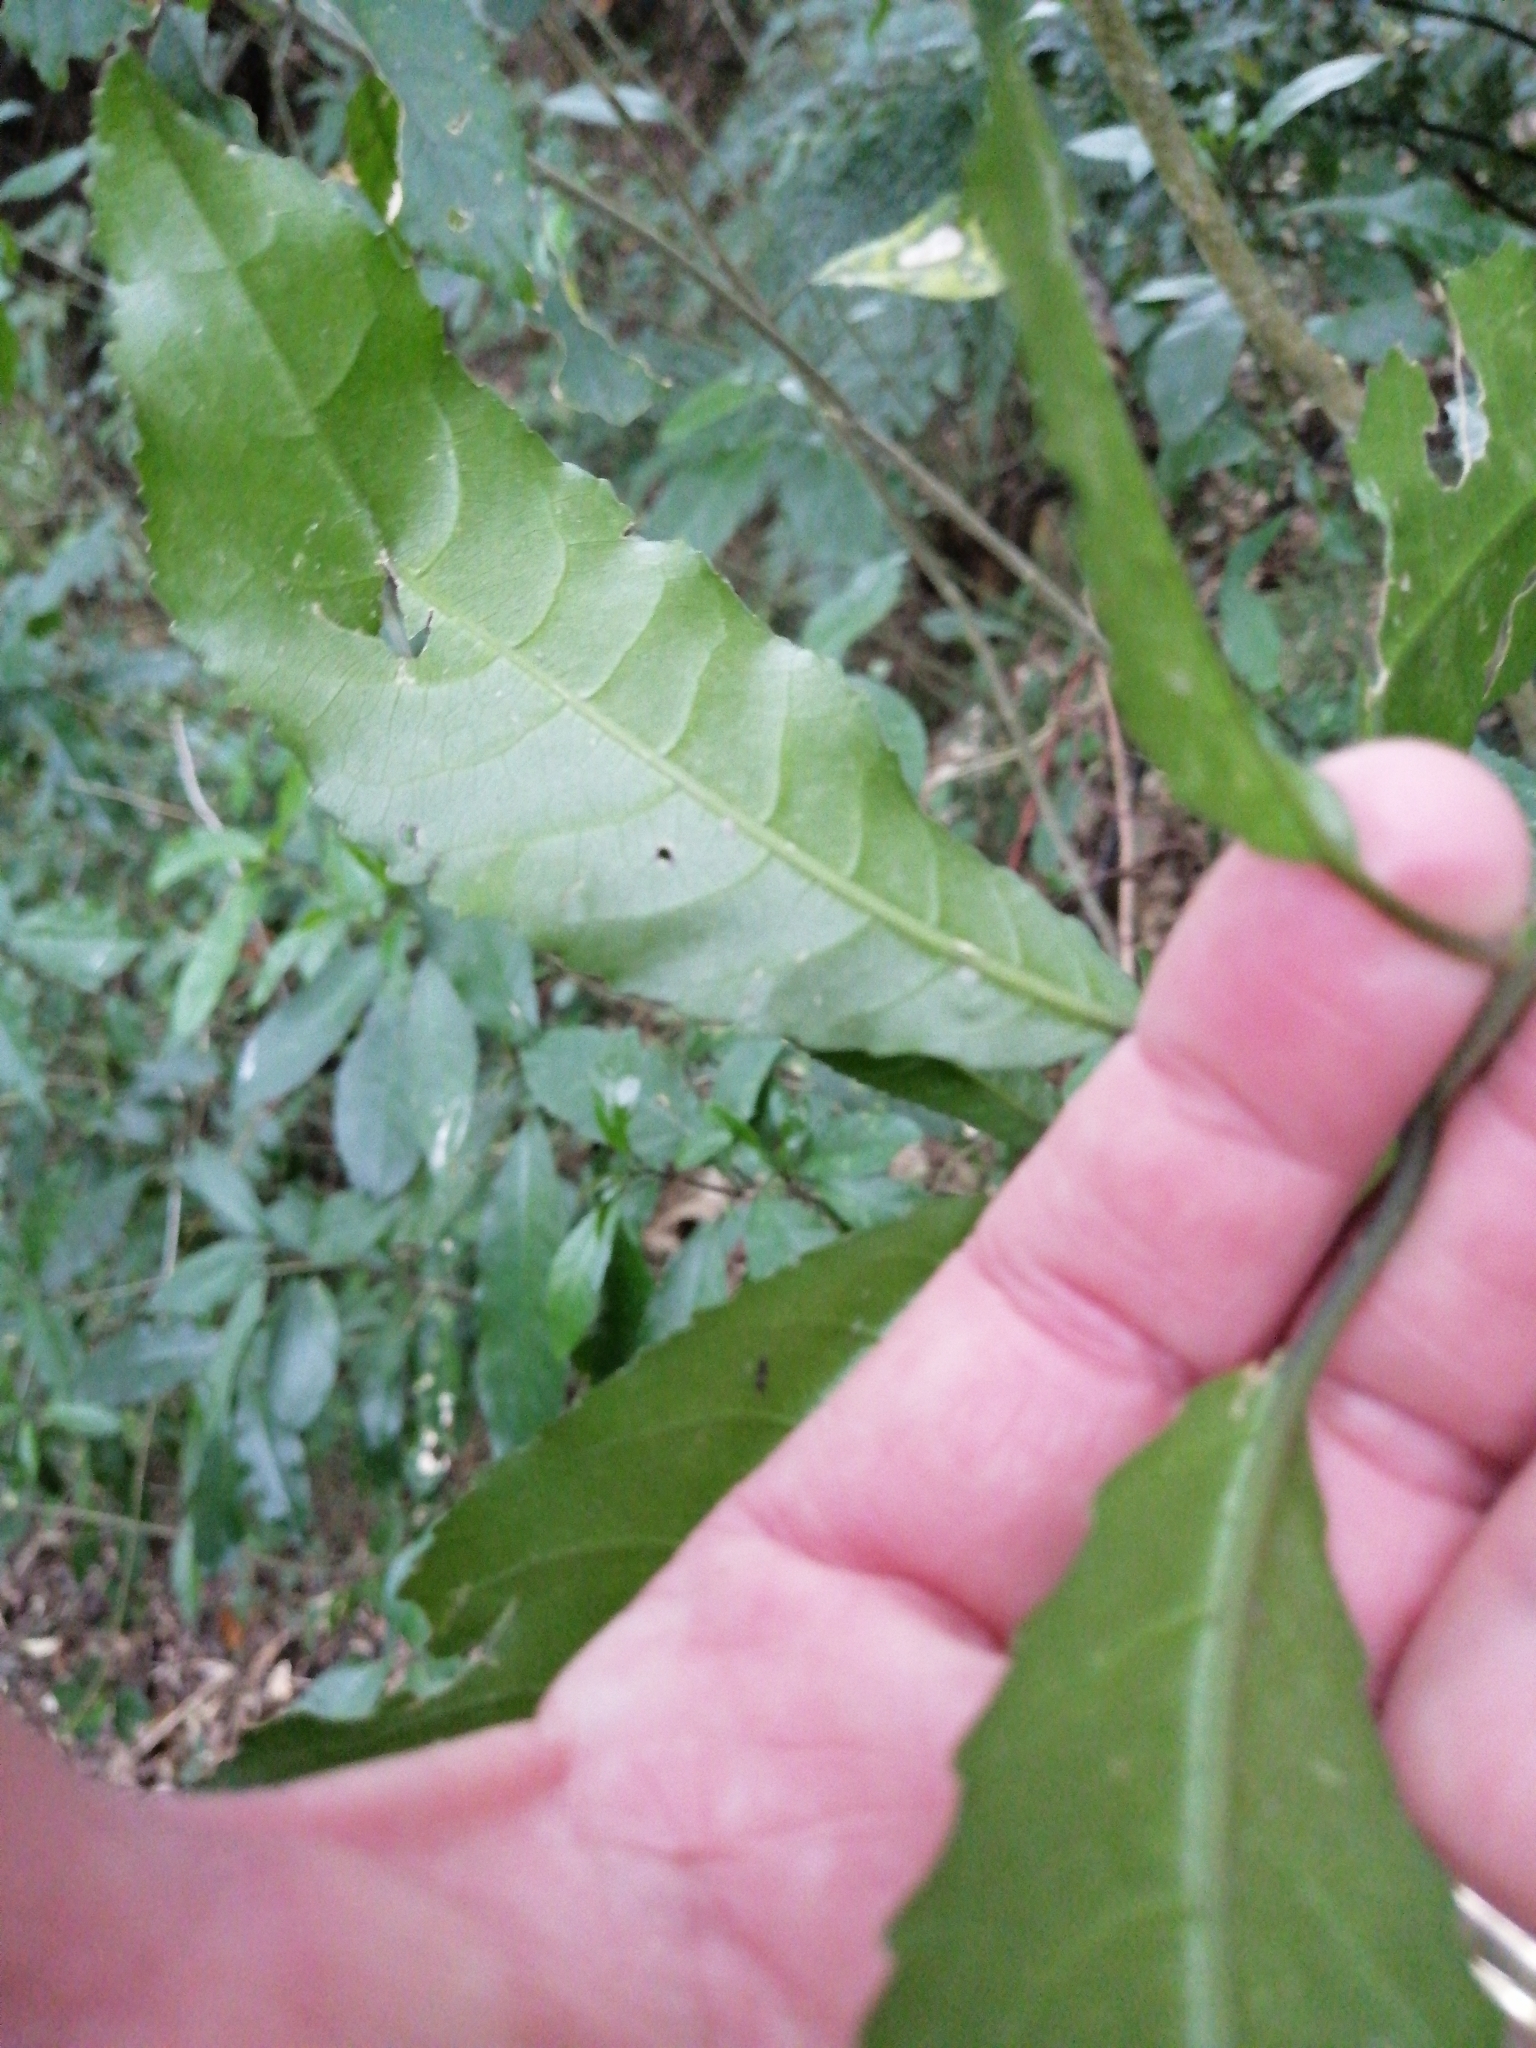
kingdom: Plantae
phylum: Tracheophyta
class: Magnoliopsida
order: Malpighiales
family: Violaceae
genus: Melicytus
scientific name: Melicytus ramiflorus
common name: Mahoe
